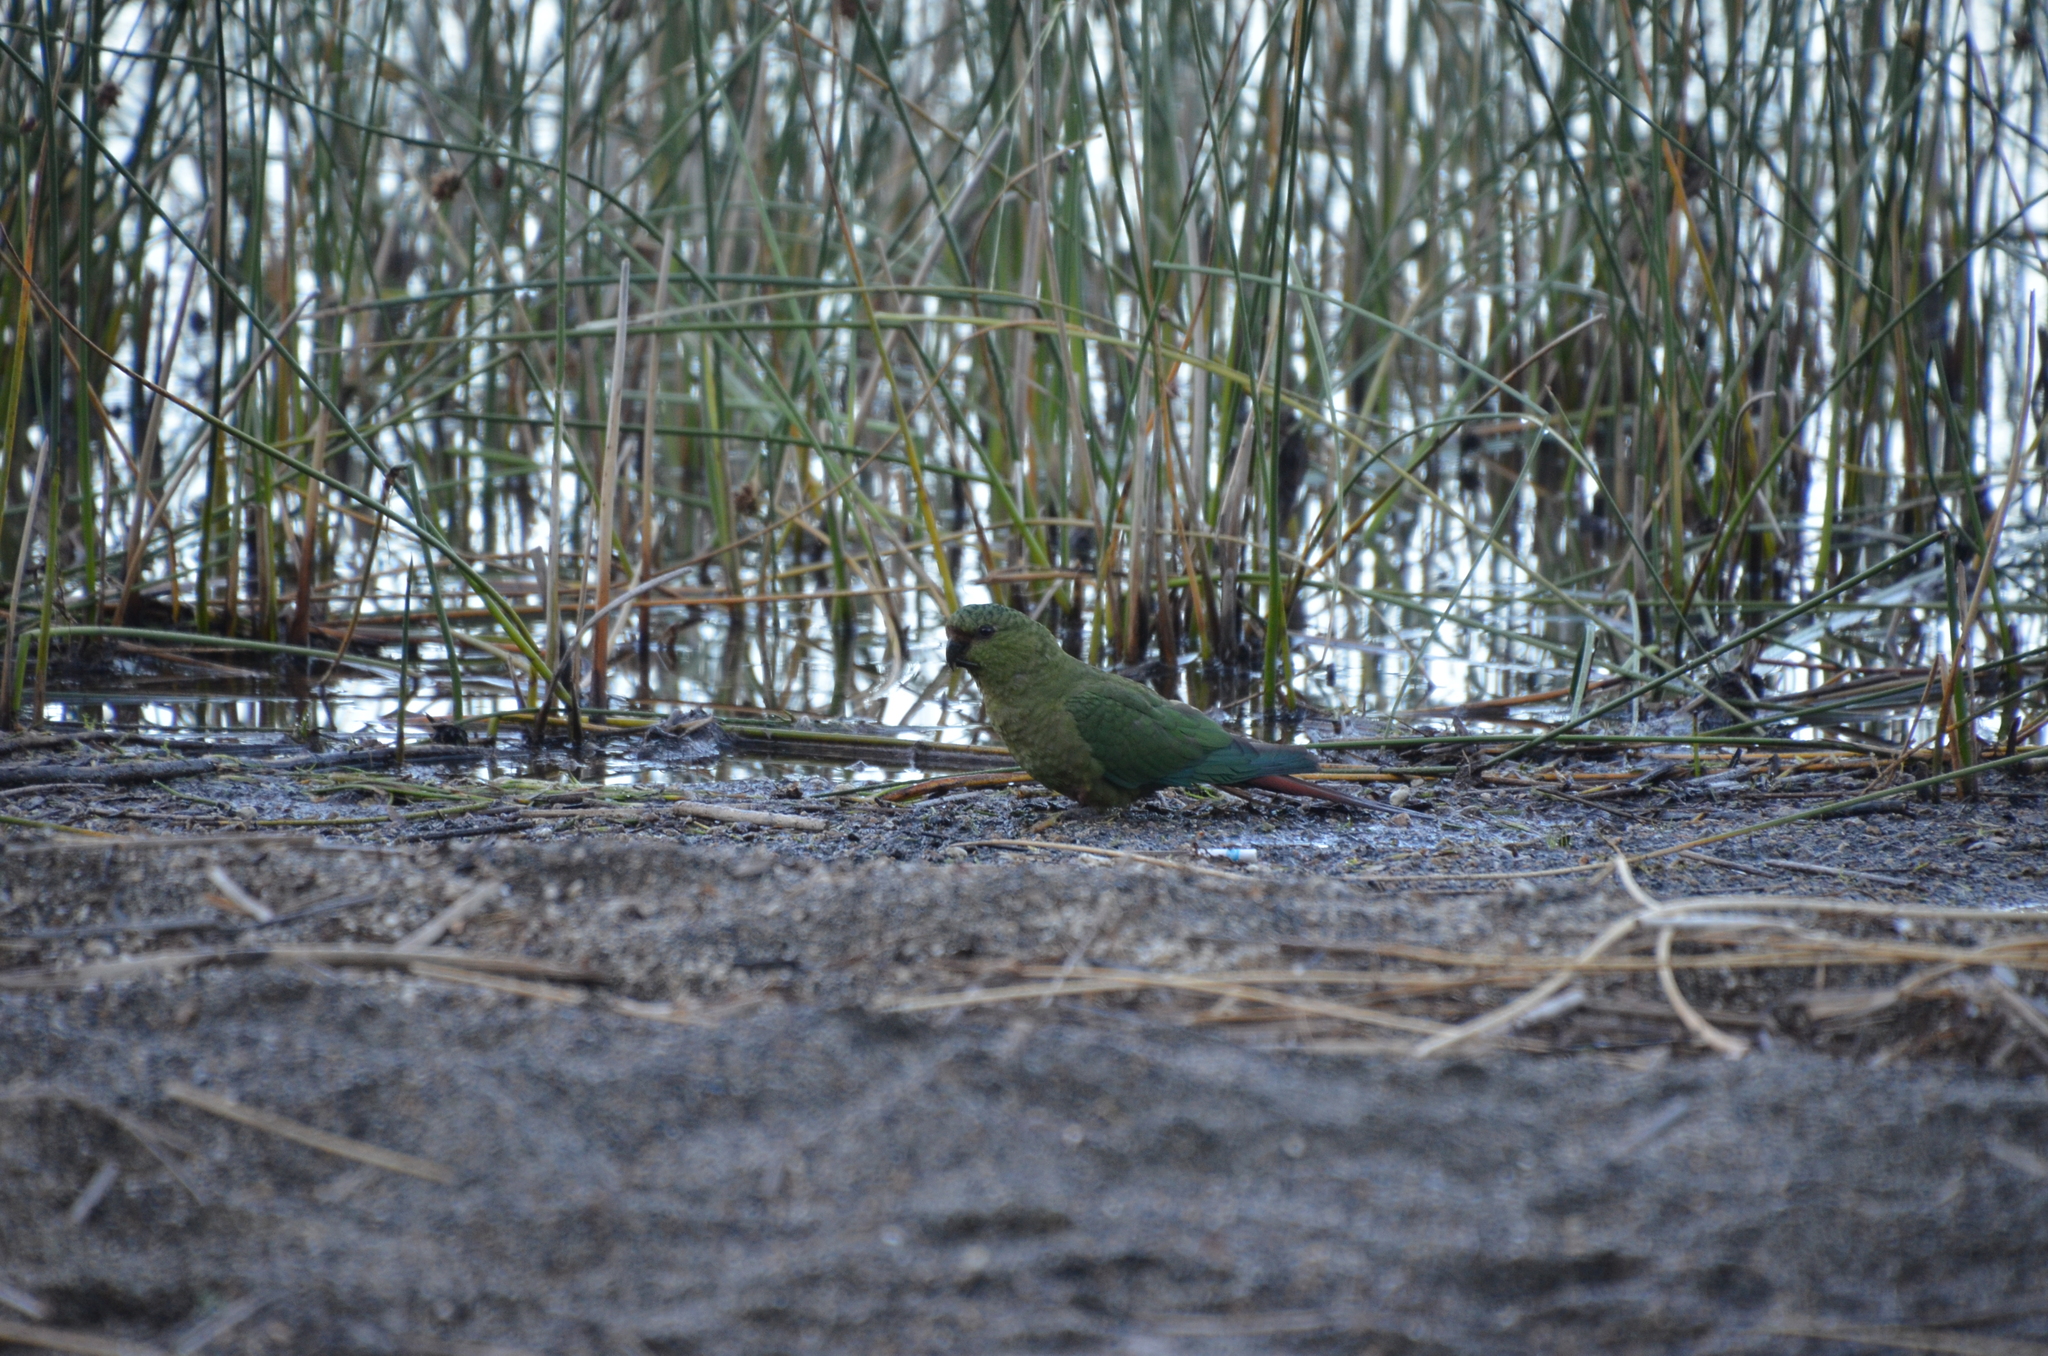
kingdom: Animalia
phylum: Chordata
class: Aves
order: Psittaciformes
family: Psittacidae
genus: Enicognathus
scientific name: Enicognathus ferrugineus
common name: Austral parakeet
